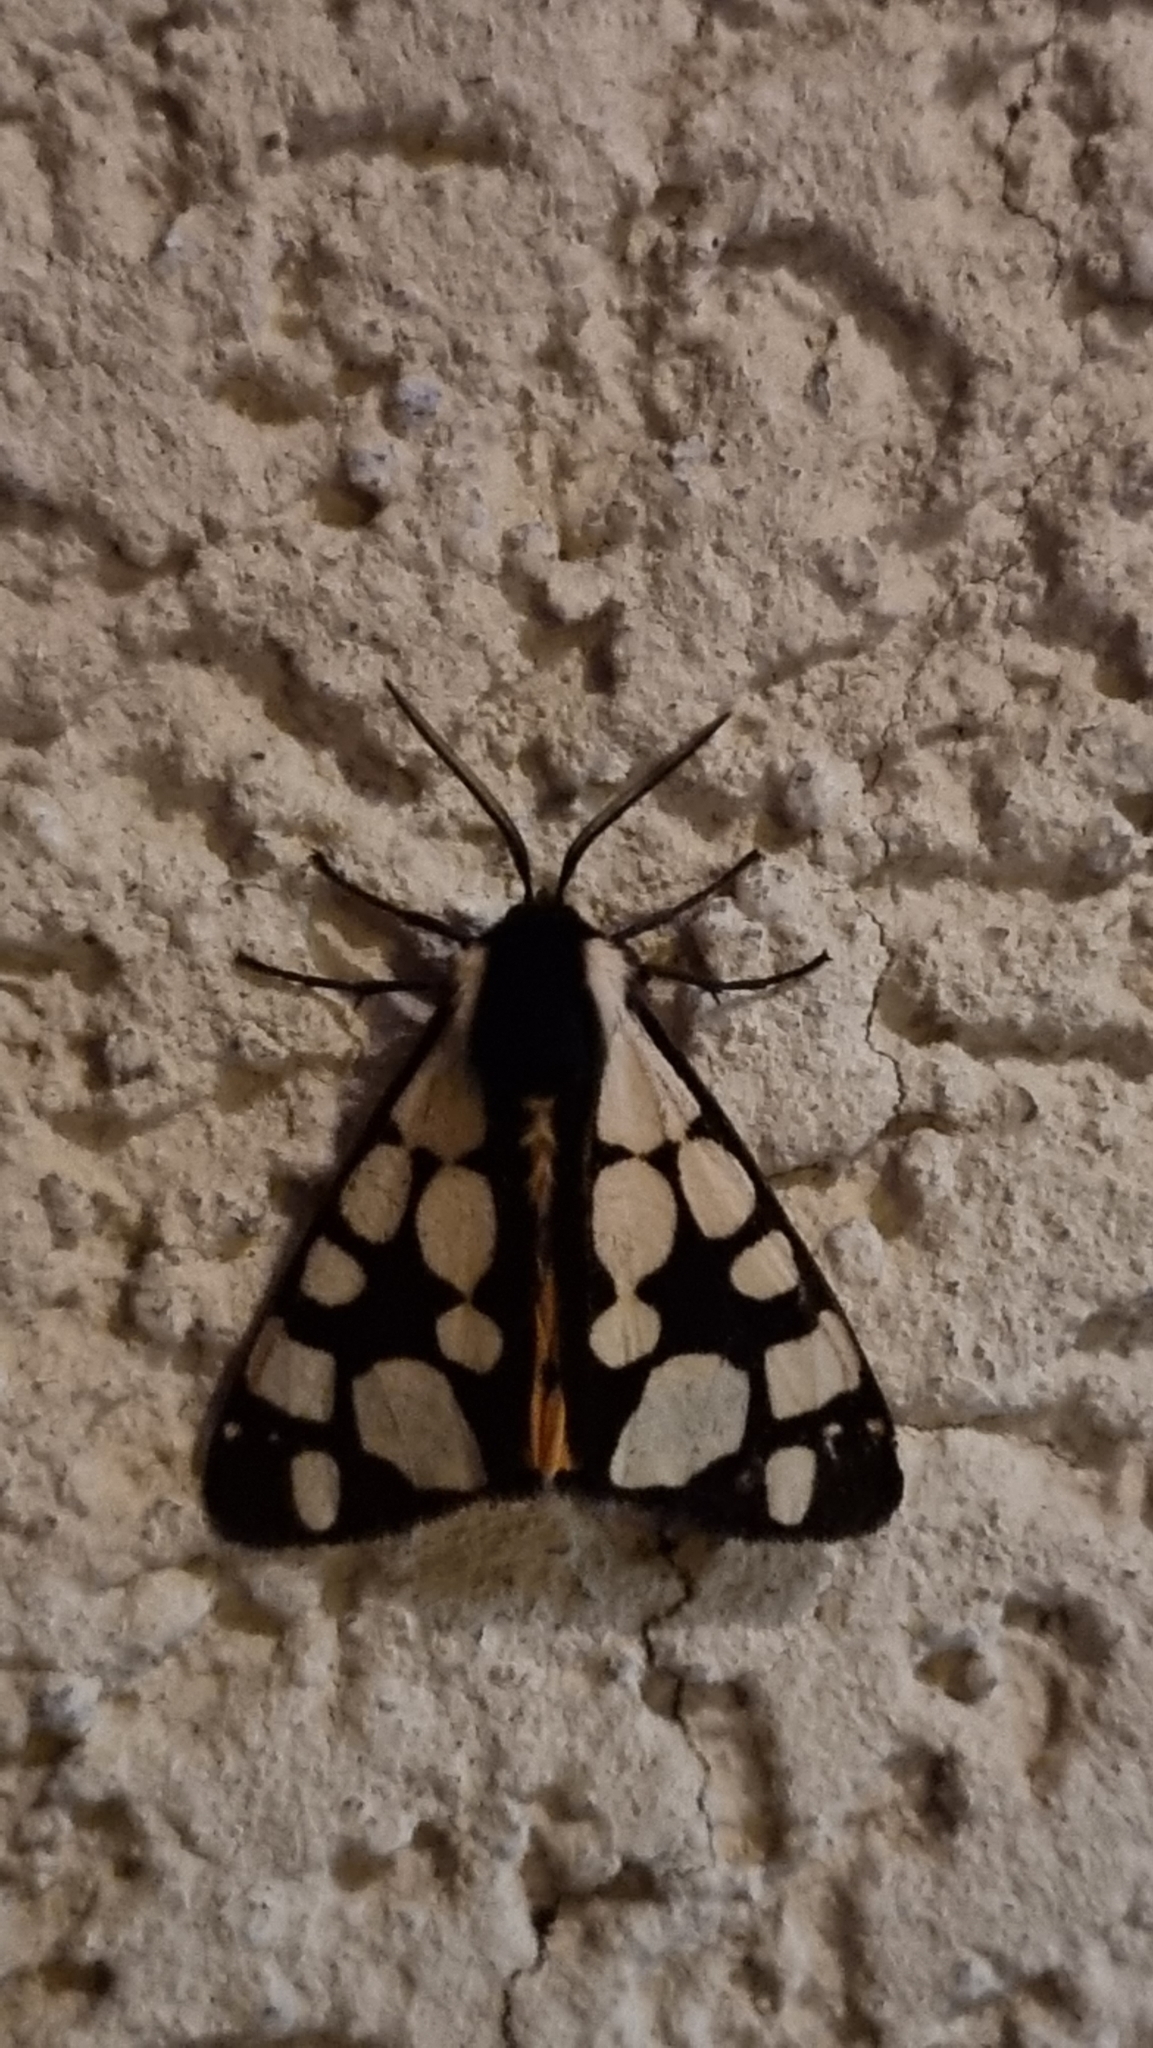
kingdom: Animalia
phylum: Arthropoda
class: Insecta
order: Lepidoptera
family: Erebidae
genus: Epicallia
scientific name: Epicallia villica
